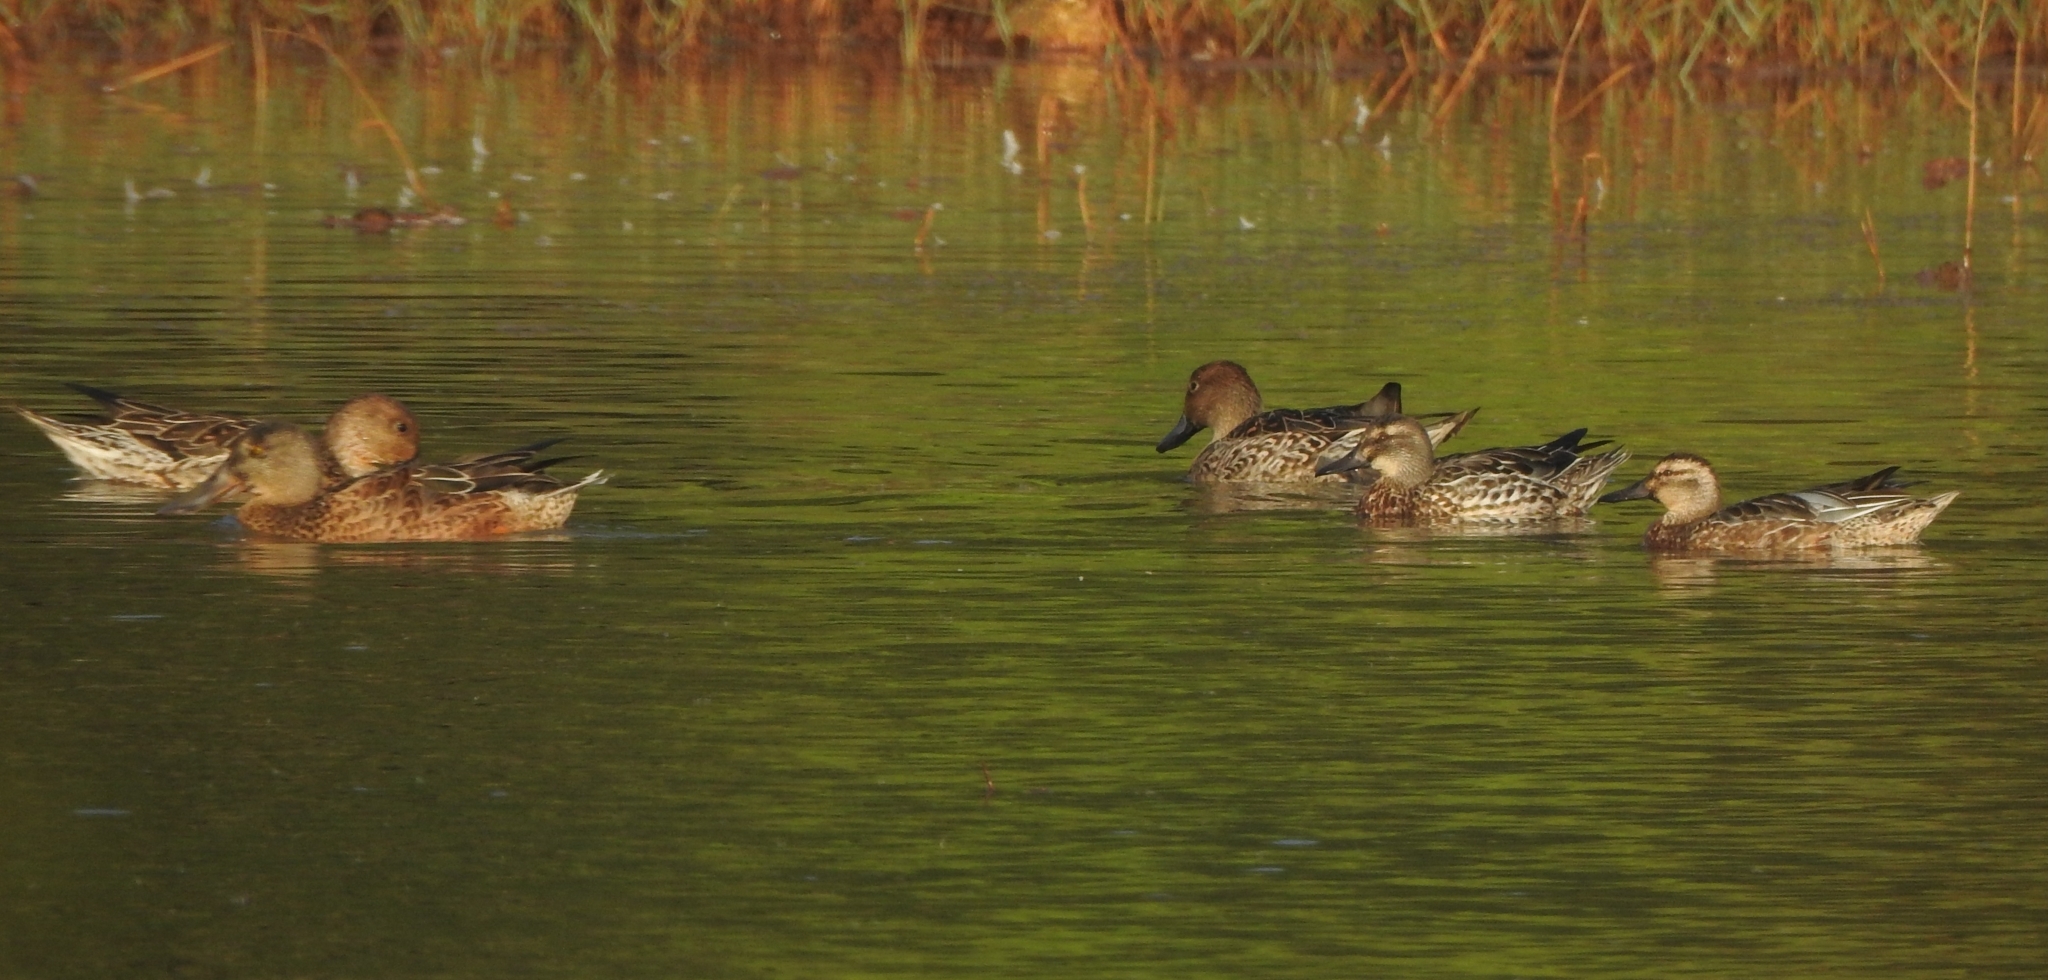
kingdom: Animalia
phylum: Chordata
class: Aves
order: Anseriformes
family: Anatidae
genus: Anas
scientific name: Anas acuta
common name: Northern pintail
